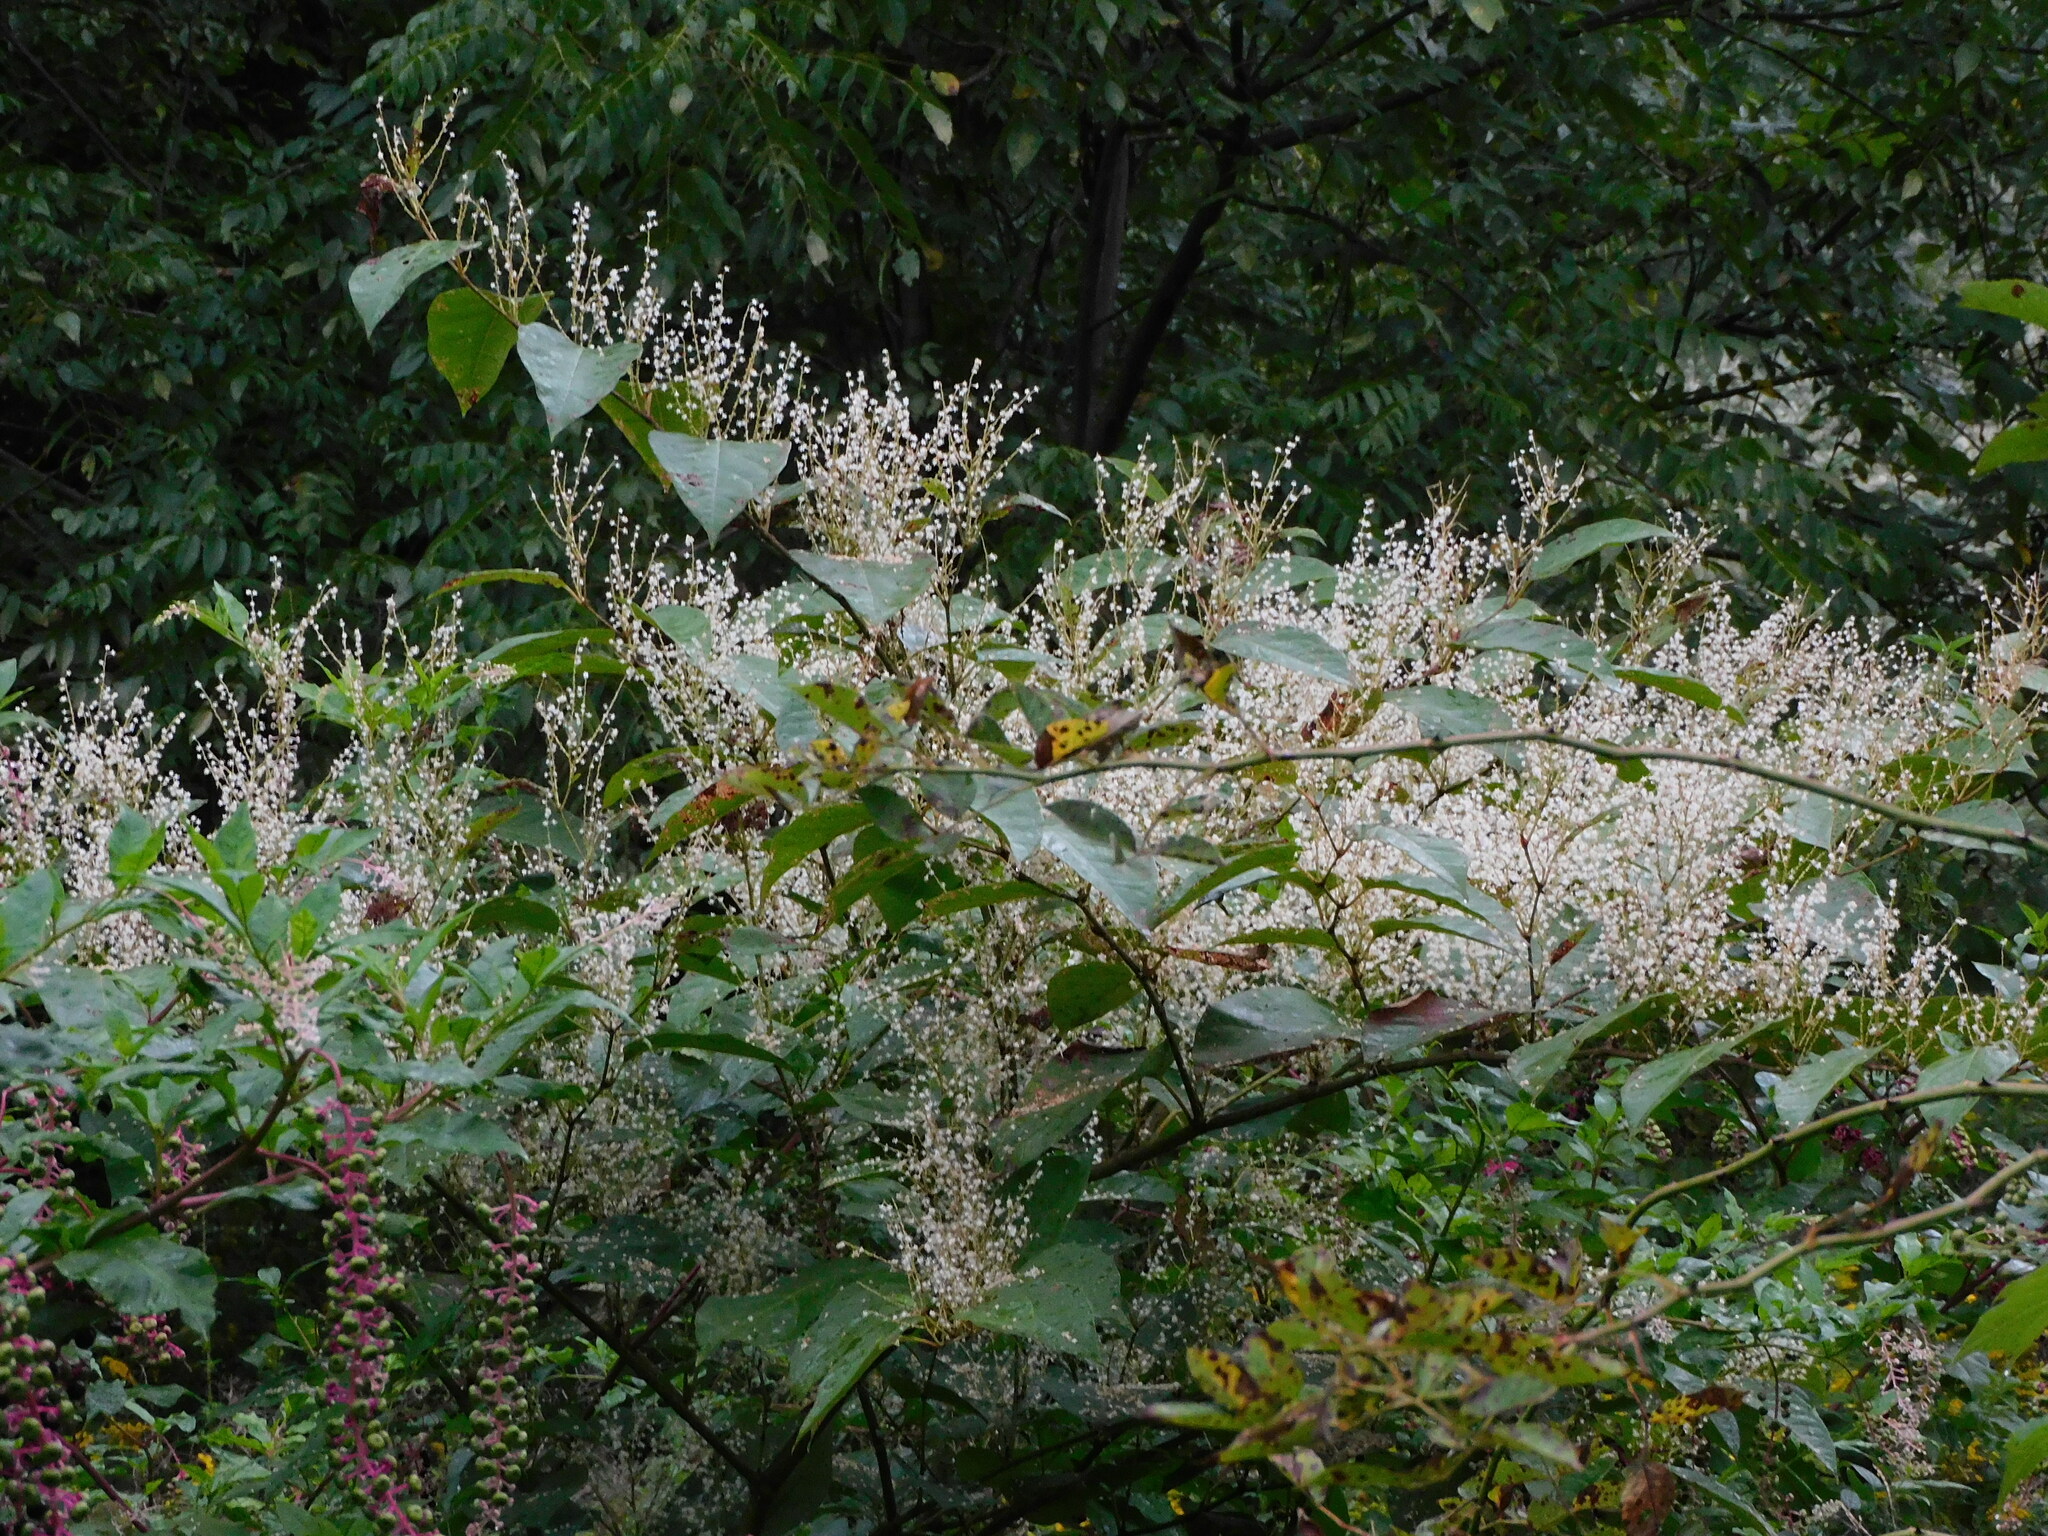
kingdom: Plantae
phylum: Tracheophyta
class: Magnoliopsida
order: Caryophyllales
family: Polygonaceae
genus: Reynoutria
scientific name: Reynoutria japonica
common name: Japanese knotweed
